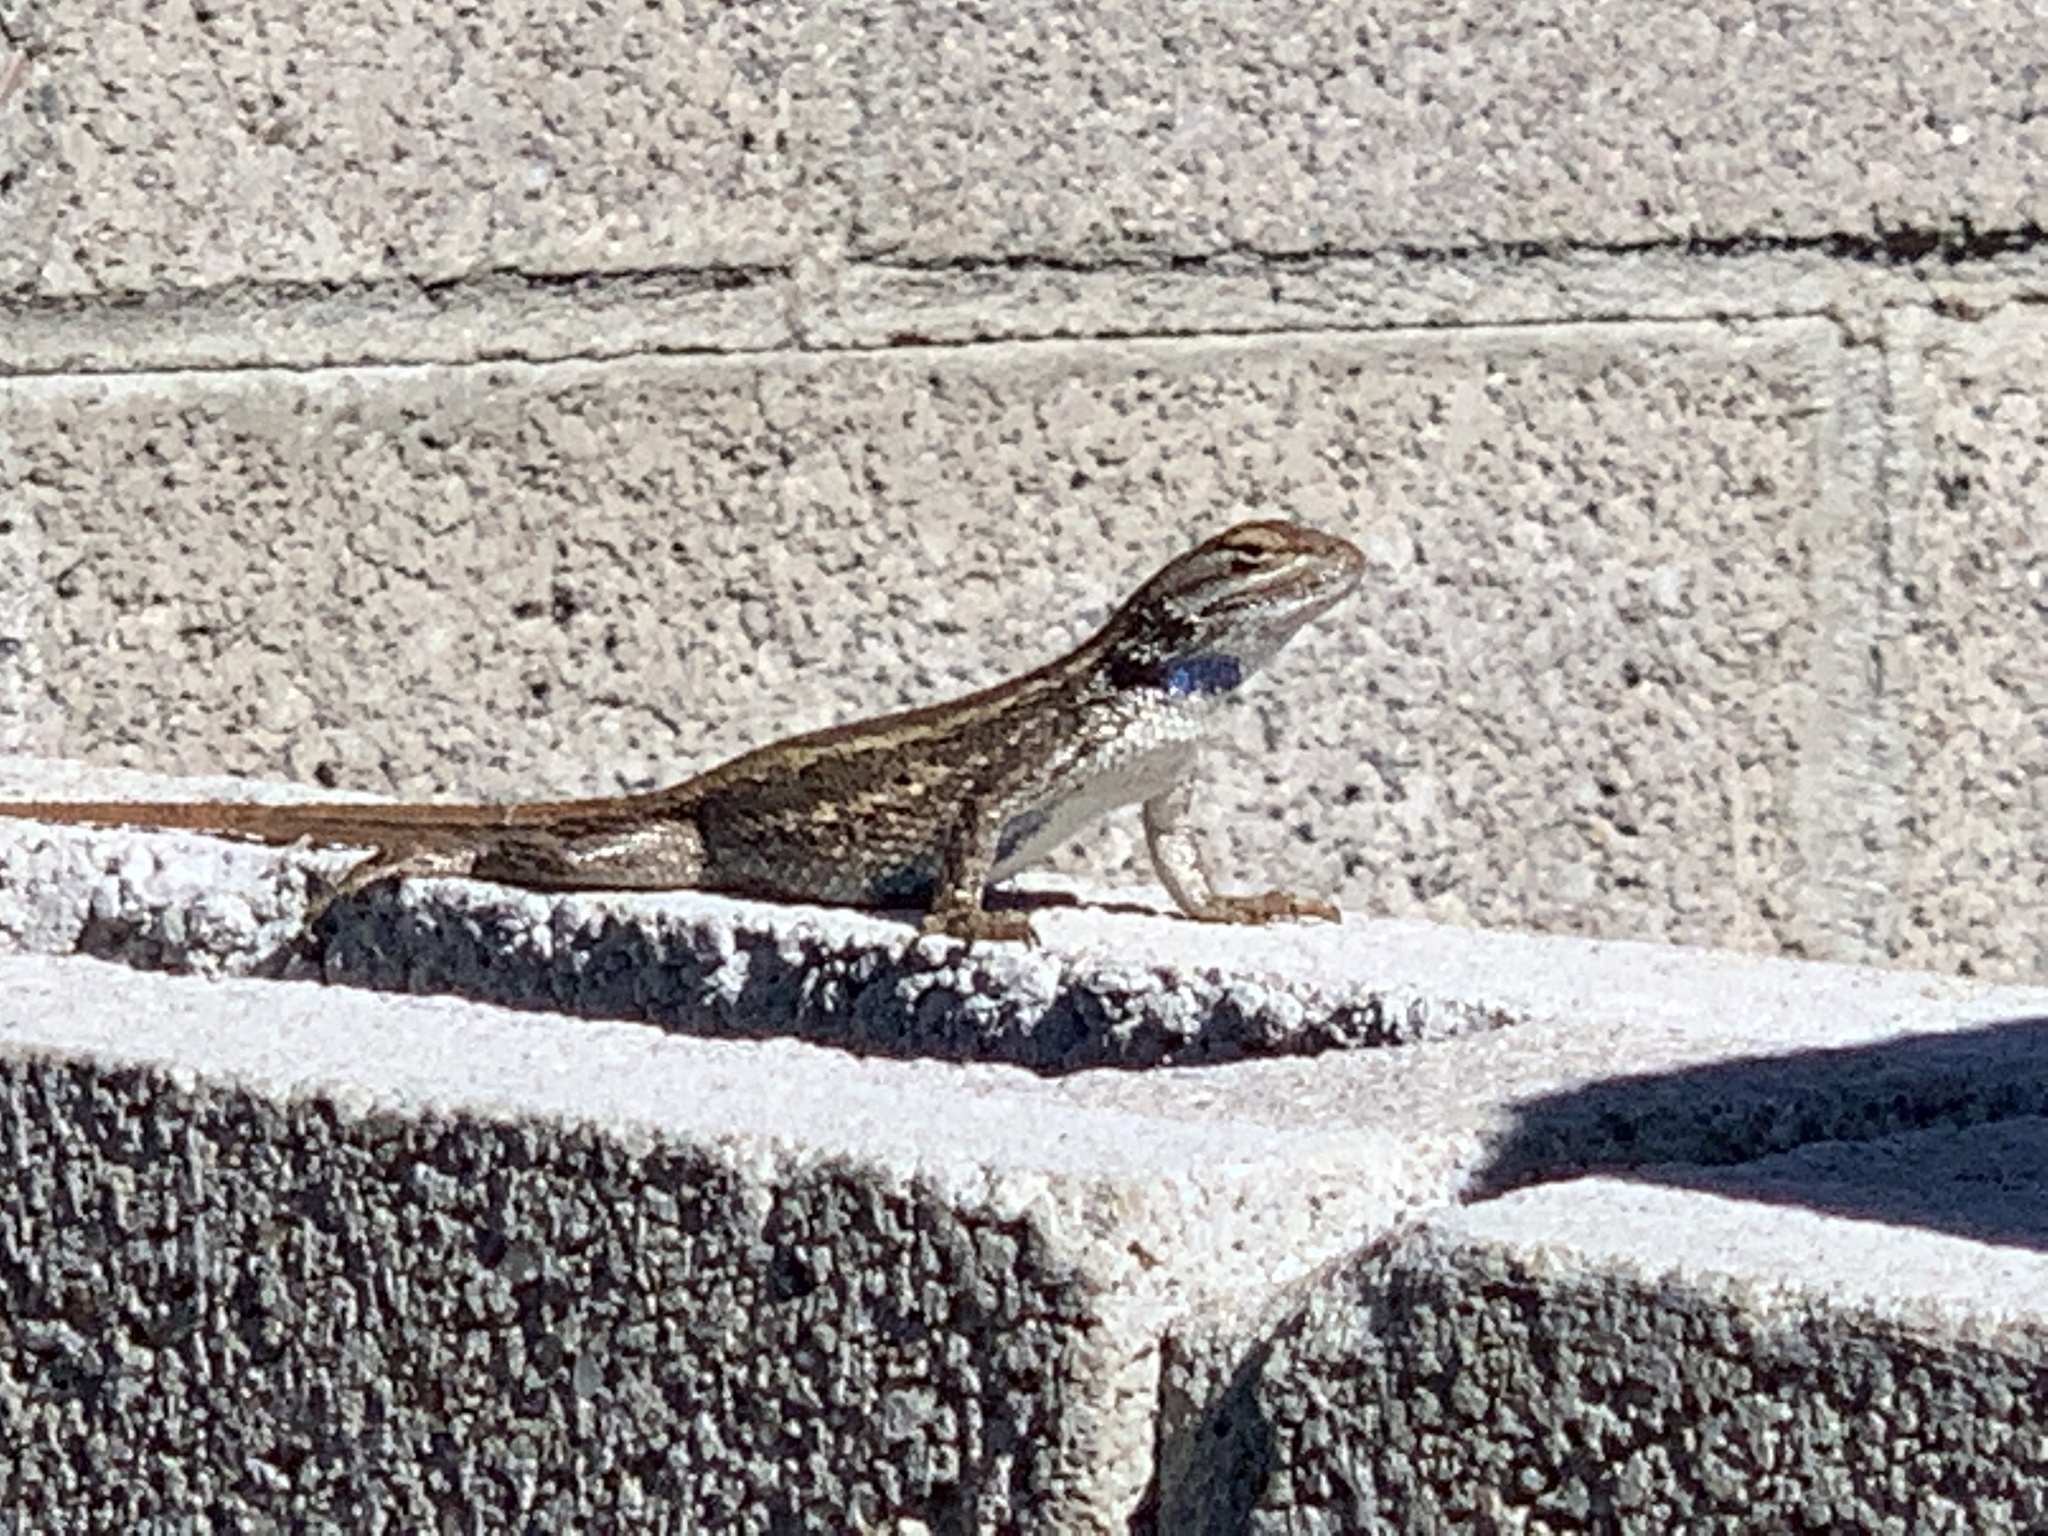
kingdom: Animalia
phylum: Chordata
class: Squamata
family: Phrynosomatidae
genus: Sceloporus
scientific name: Sceloporus cowlesi
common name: White sands prairie lizard
